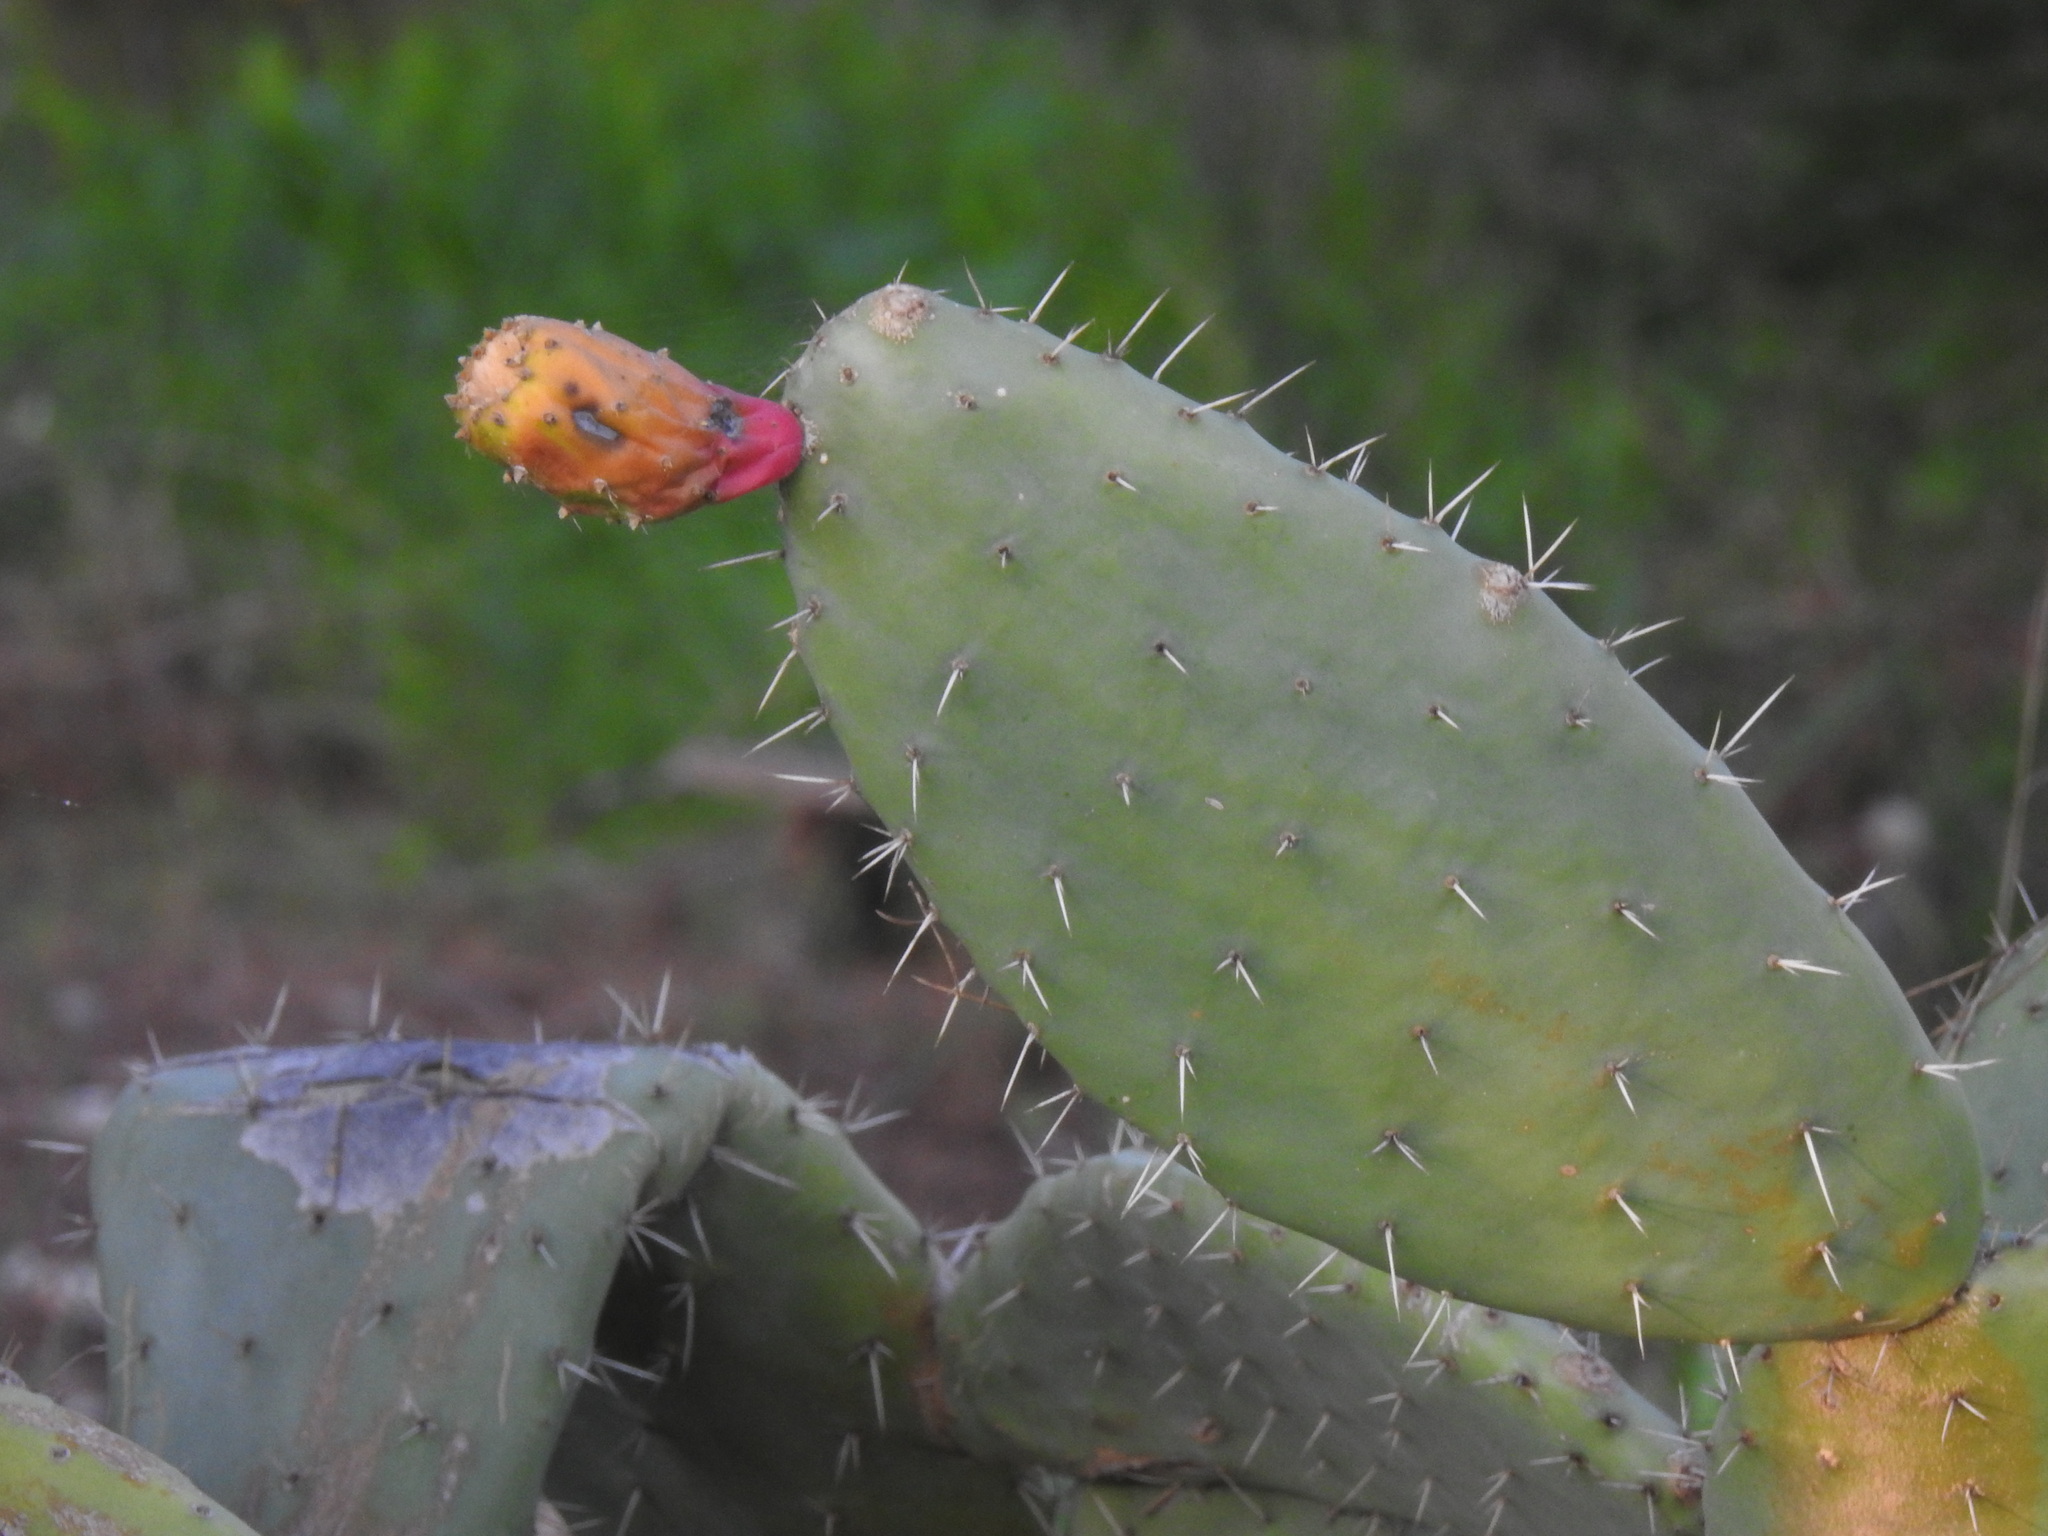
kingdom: Plantae
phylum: Tracheophyta
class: Magnoliopsida
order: Caryophyllales
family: Cactaceae
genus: Opuntia
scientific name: Opuntia ficus-indica
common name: Barbary fig
